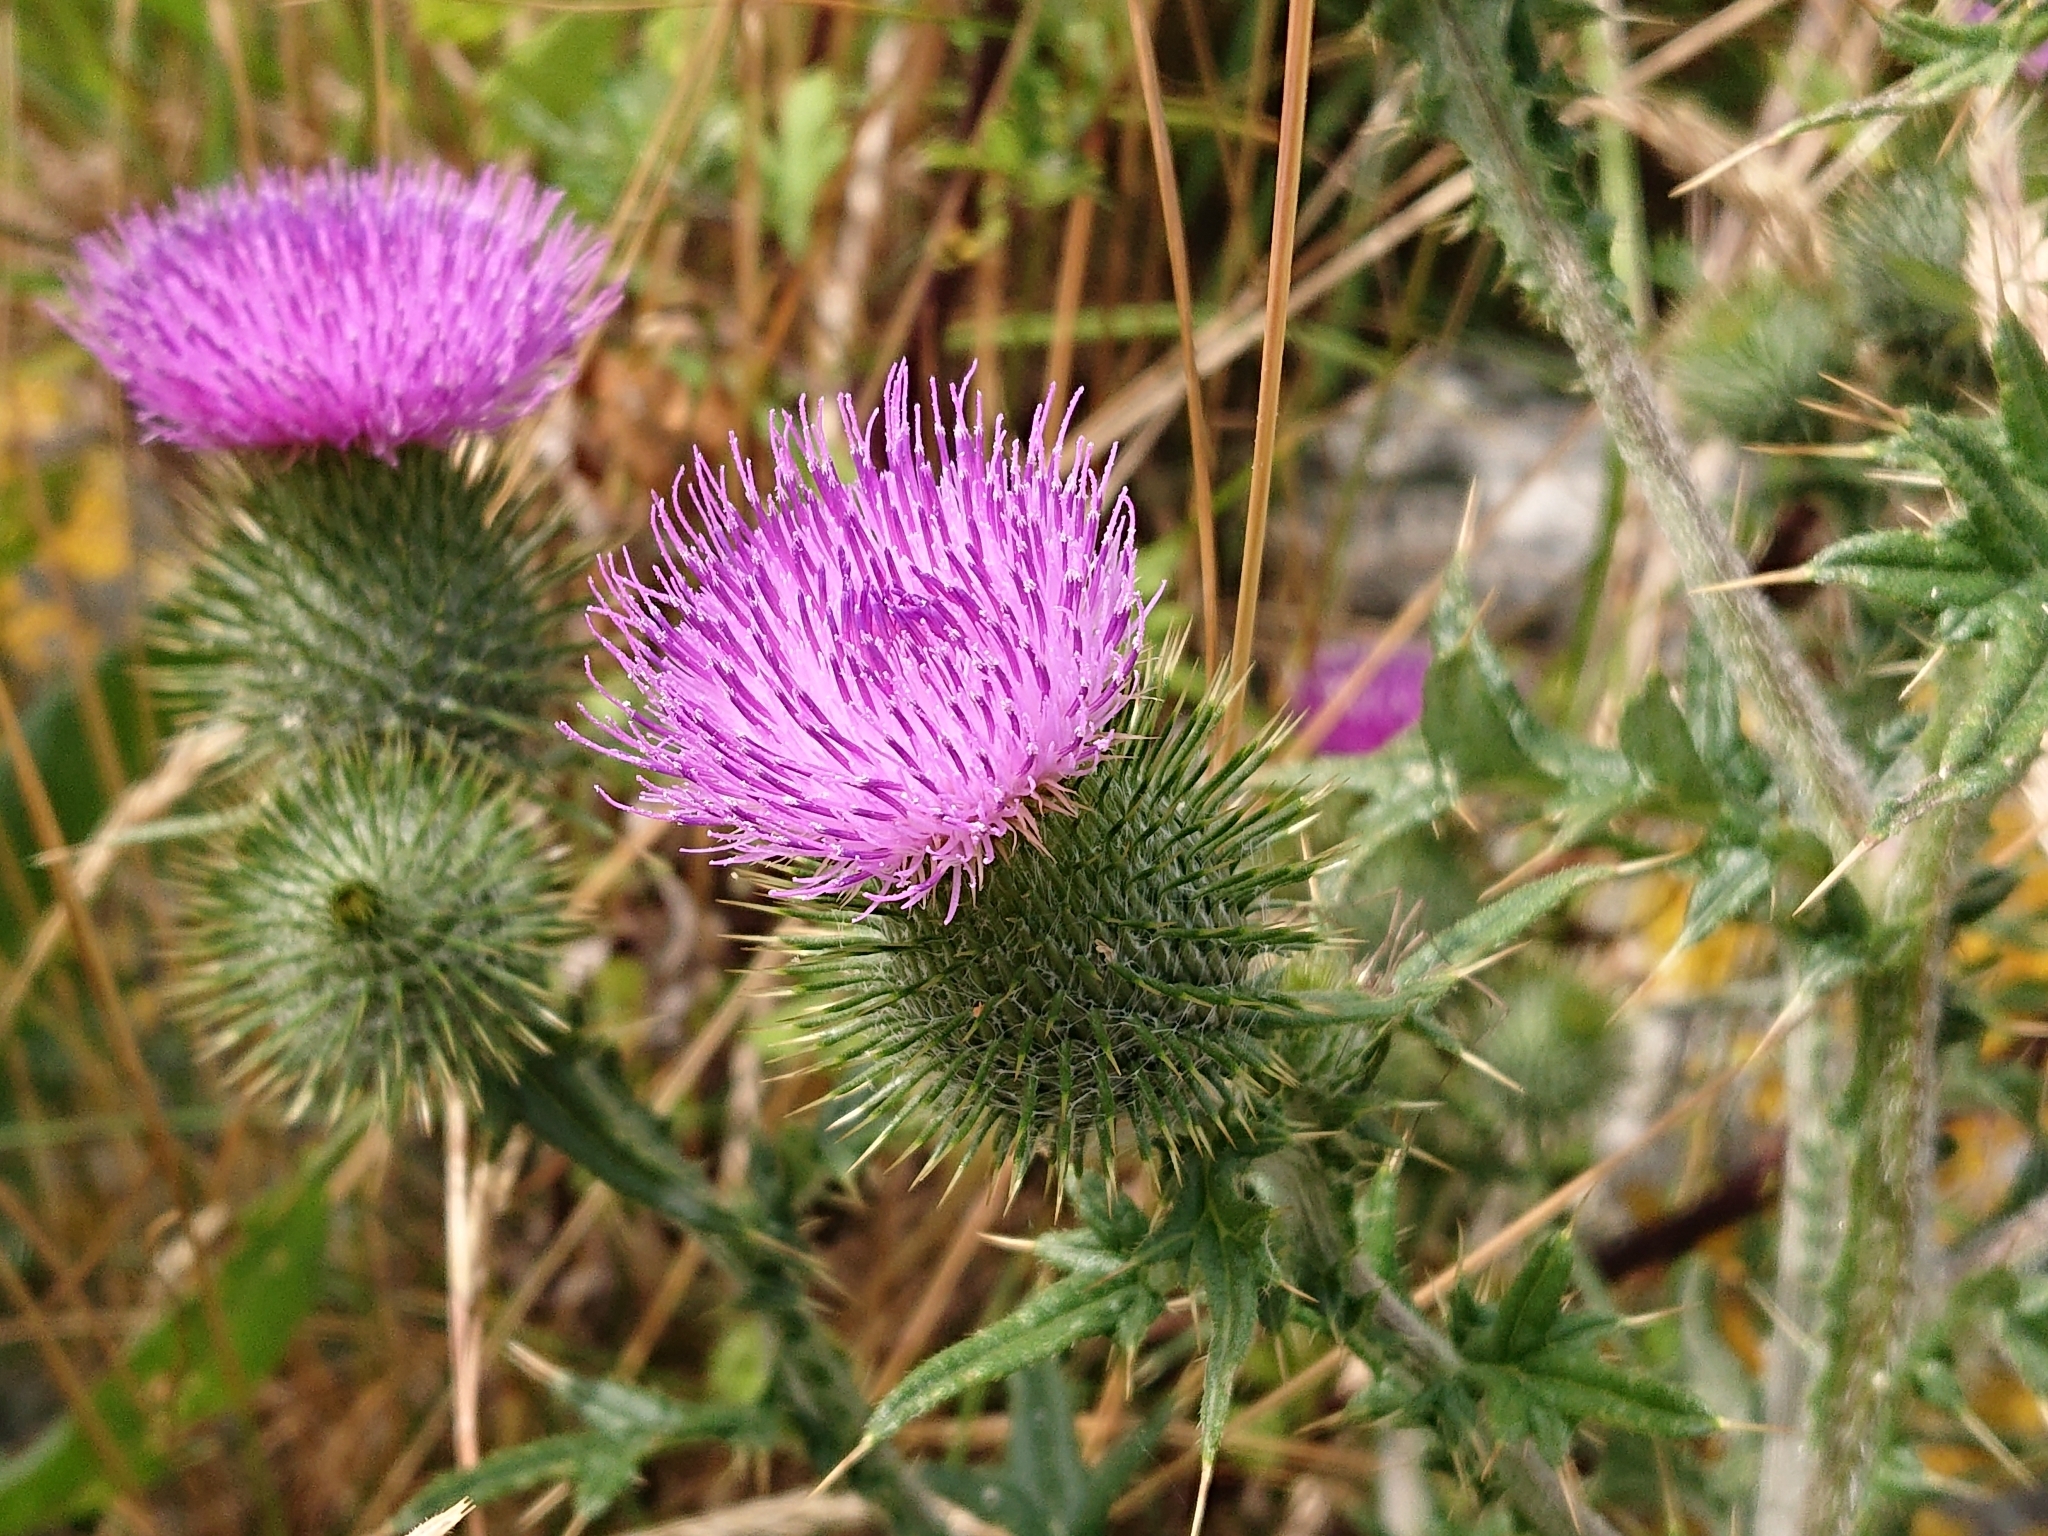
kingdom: Plantae
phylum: Tracheophyta
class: Magnoliopsida
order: Asterales
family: Asteraceae
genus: Cirsium
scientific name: Cirsium vulgare
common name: Bull thistle
